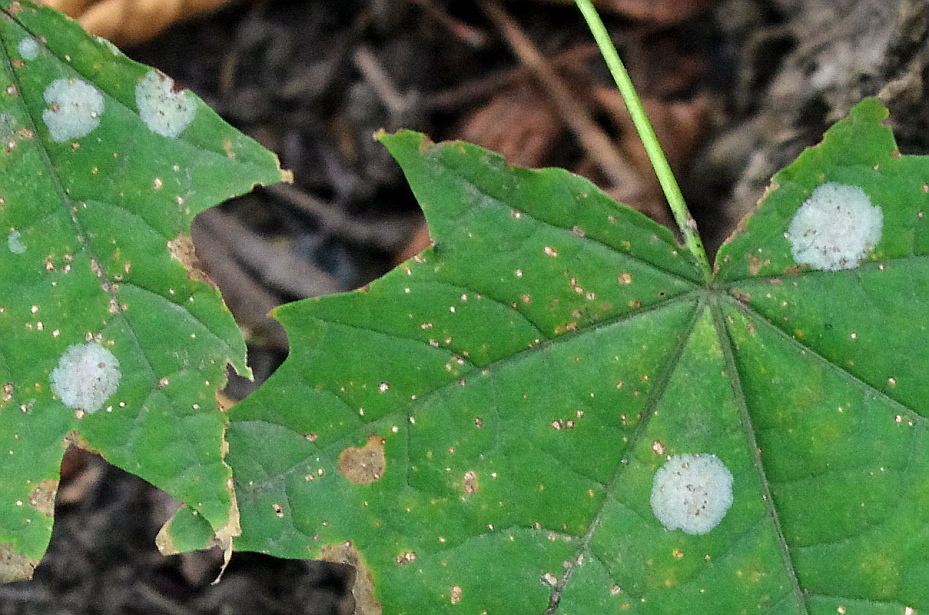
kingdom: Fungi
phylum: Ascomycota
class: Leotiomycetes
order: Helotiales
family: Erysiphaceae
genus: Sawadaea
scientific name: Sawadaea tulasnei
